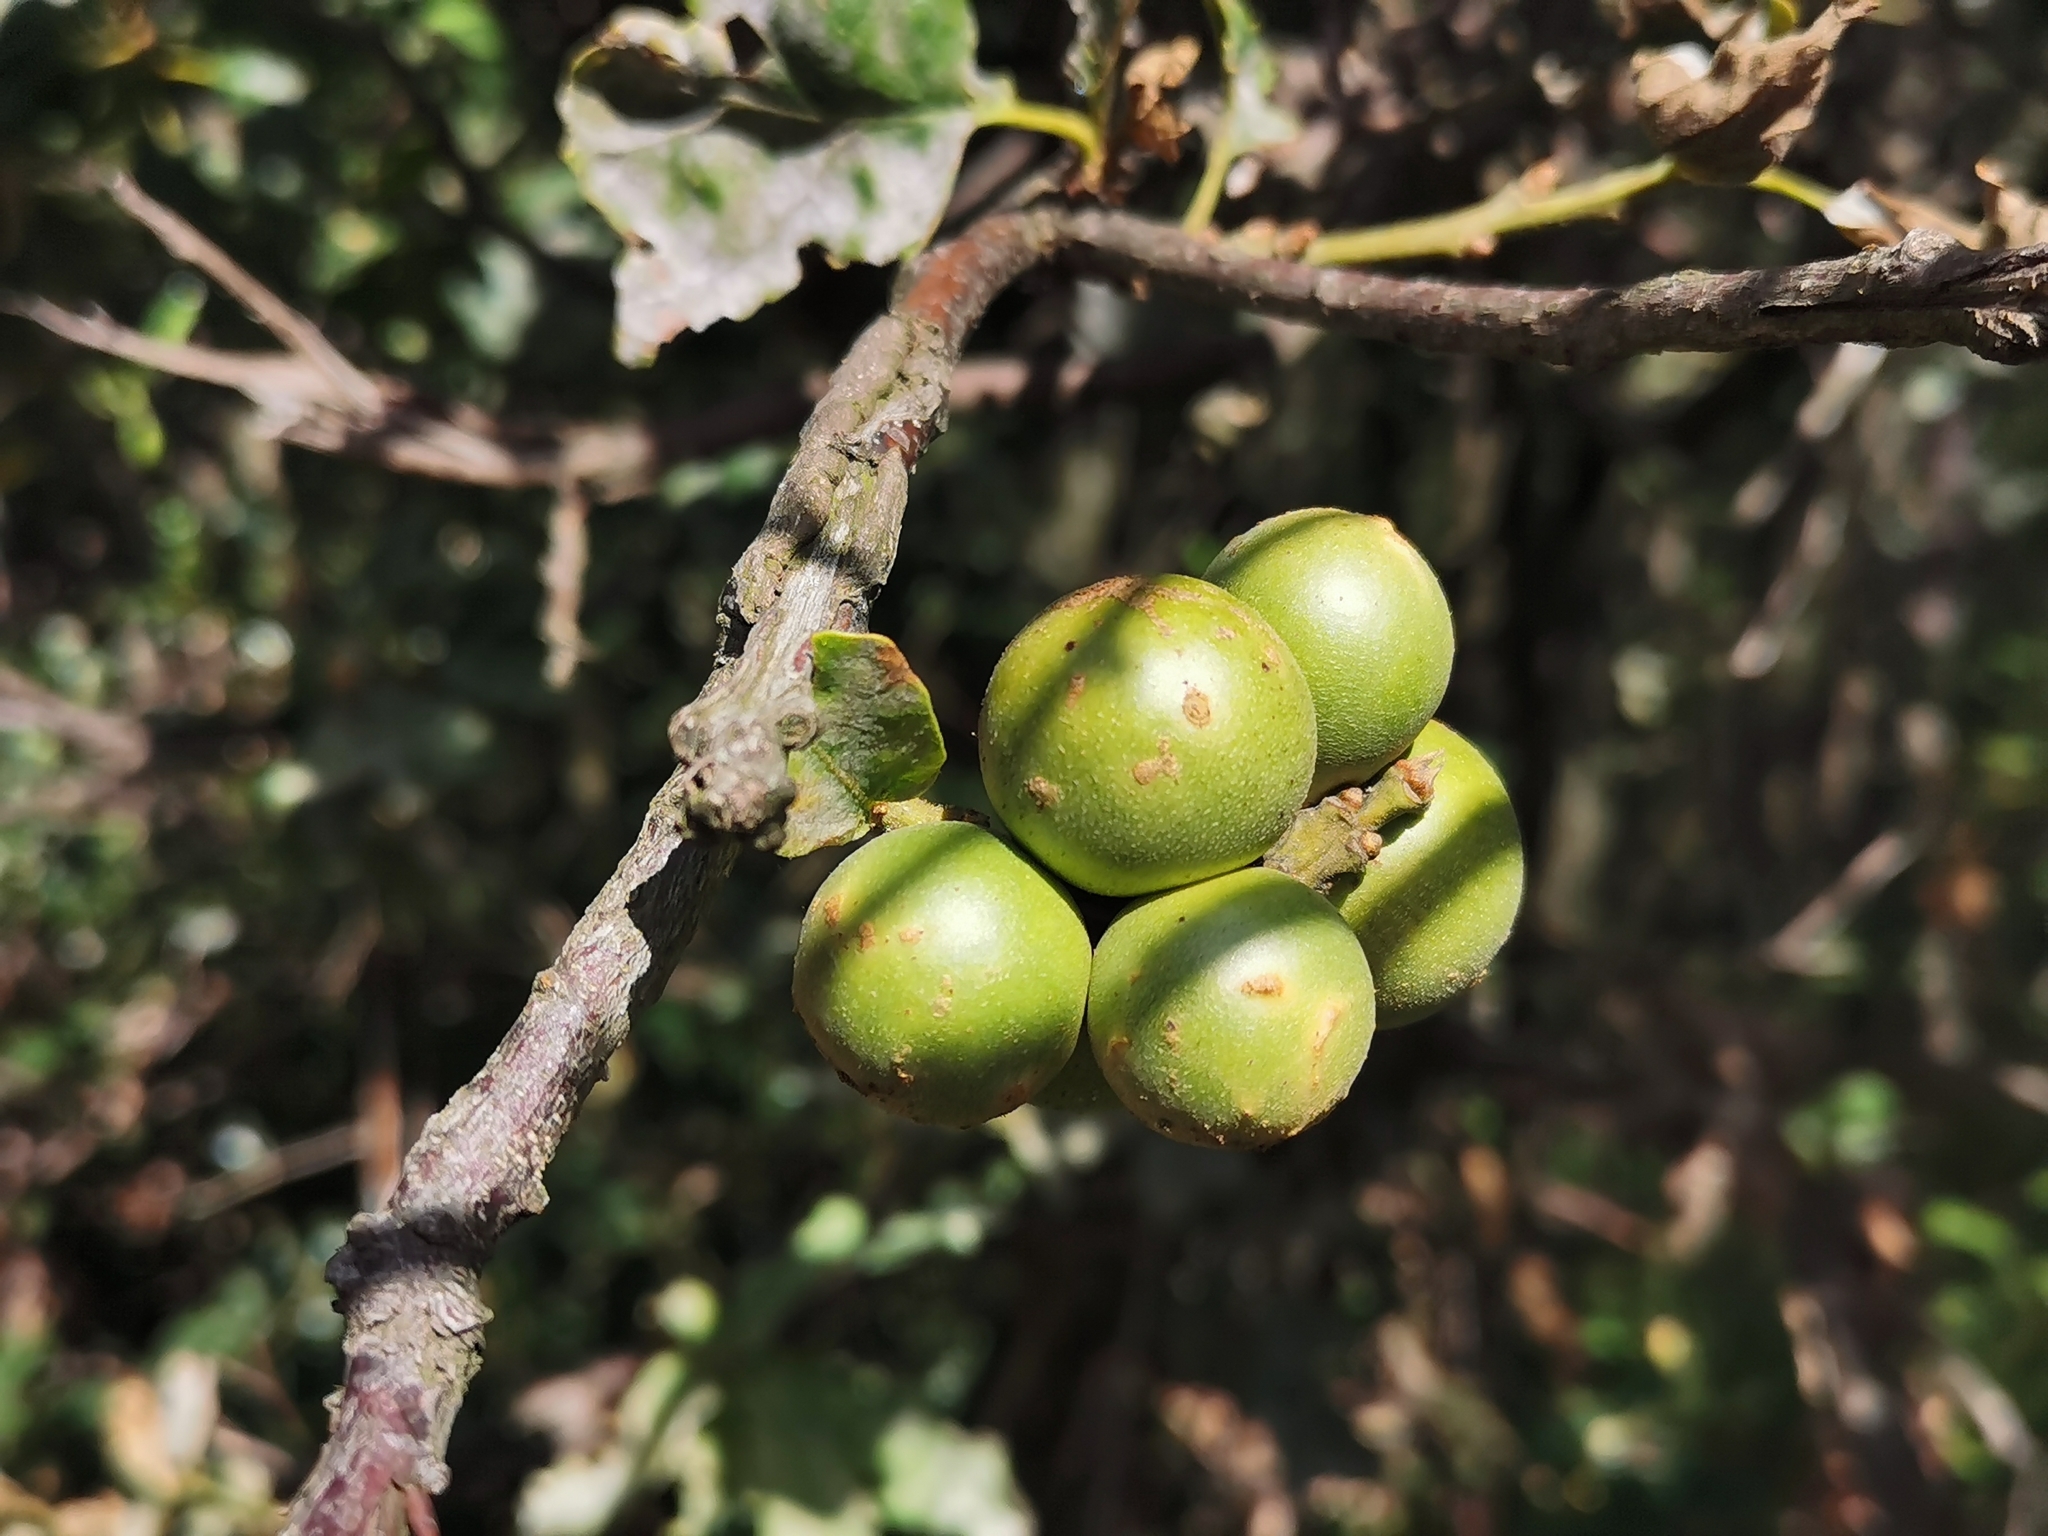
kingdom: Animalia
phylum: Arthropoda
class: Insecta
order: Hymenoptera
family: Cynipidae
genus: Andricus
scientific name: Andricus kollari
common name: Marble gall
